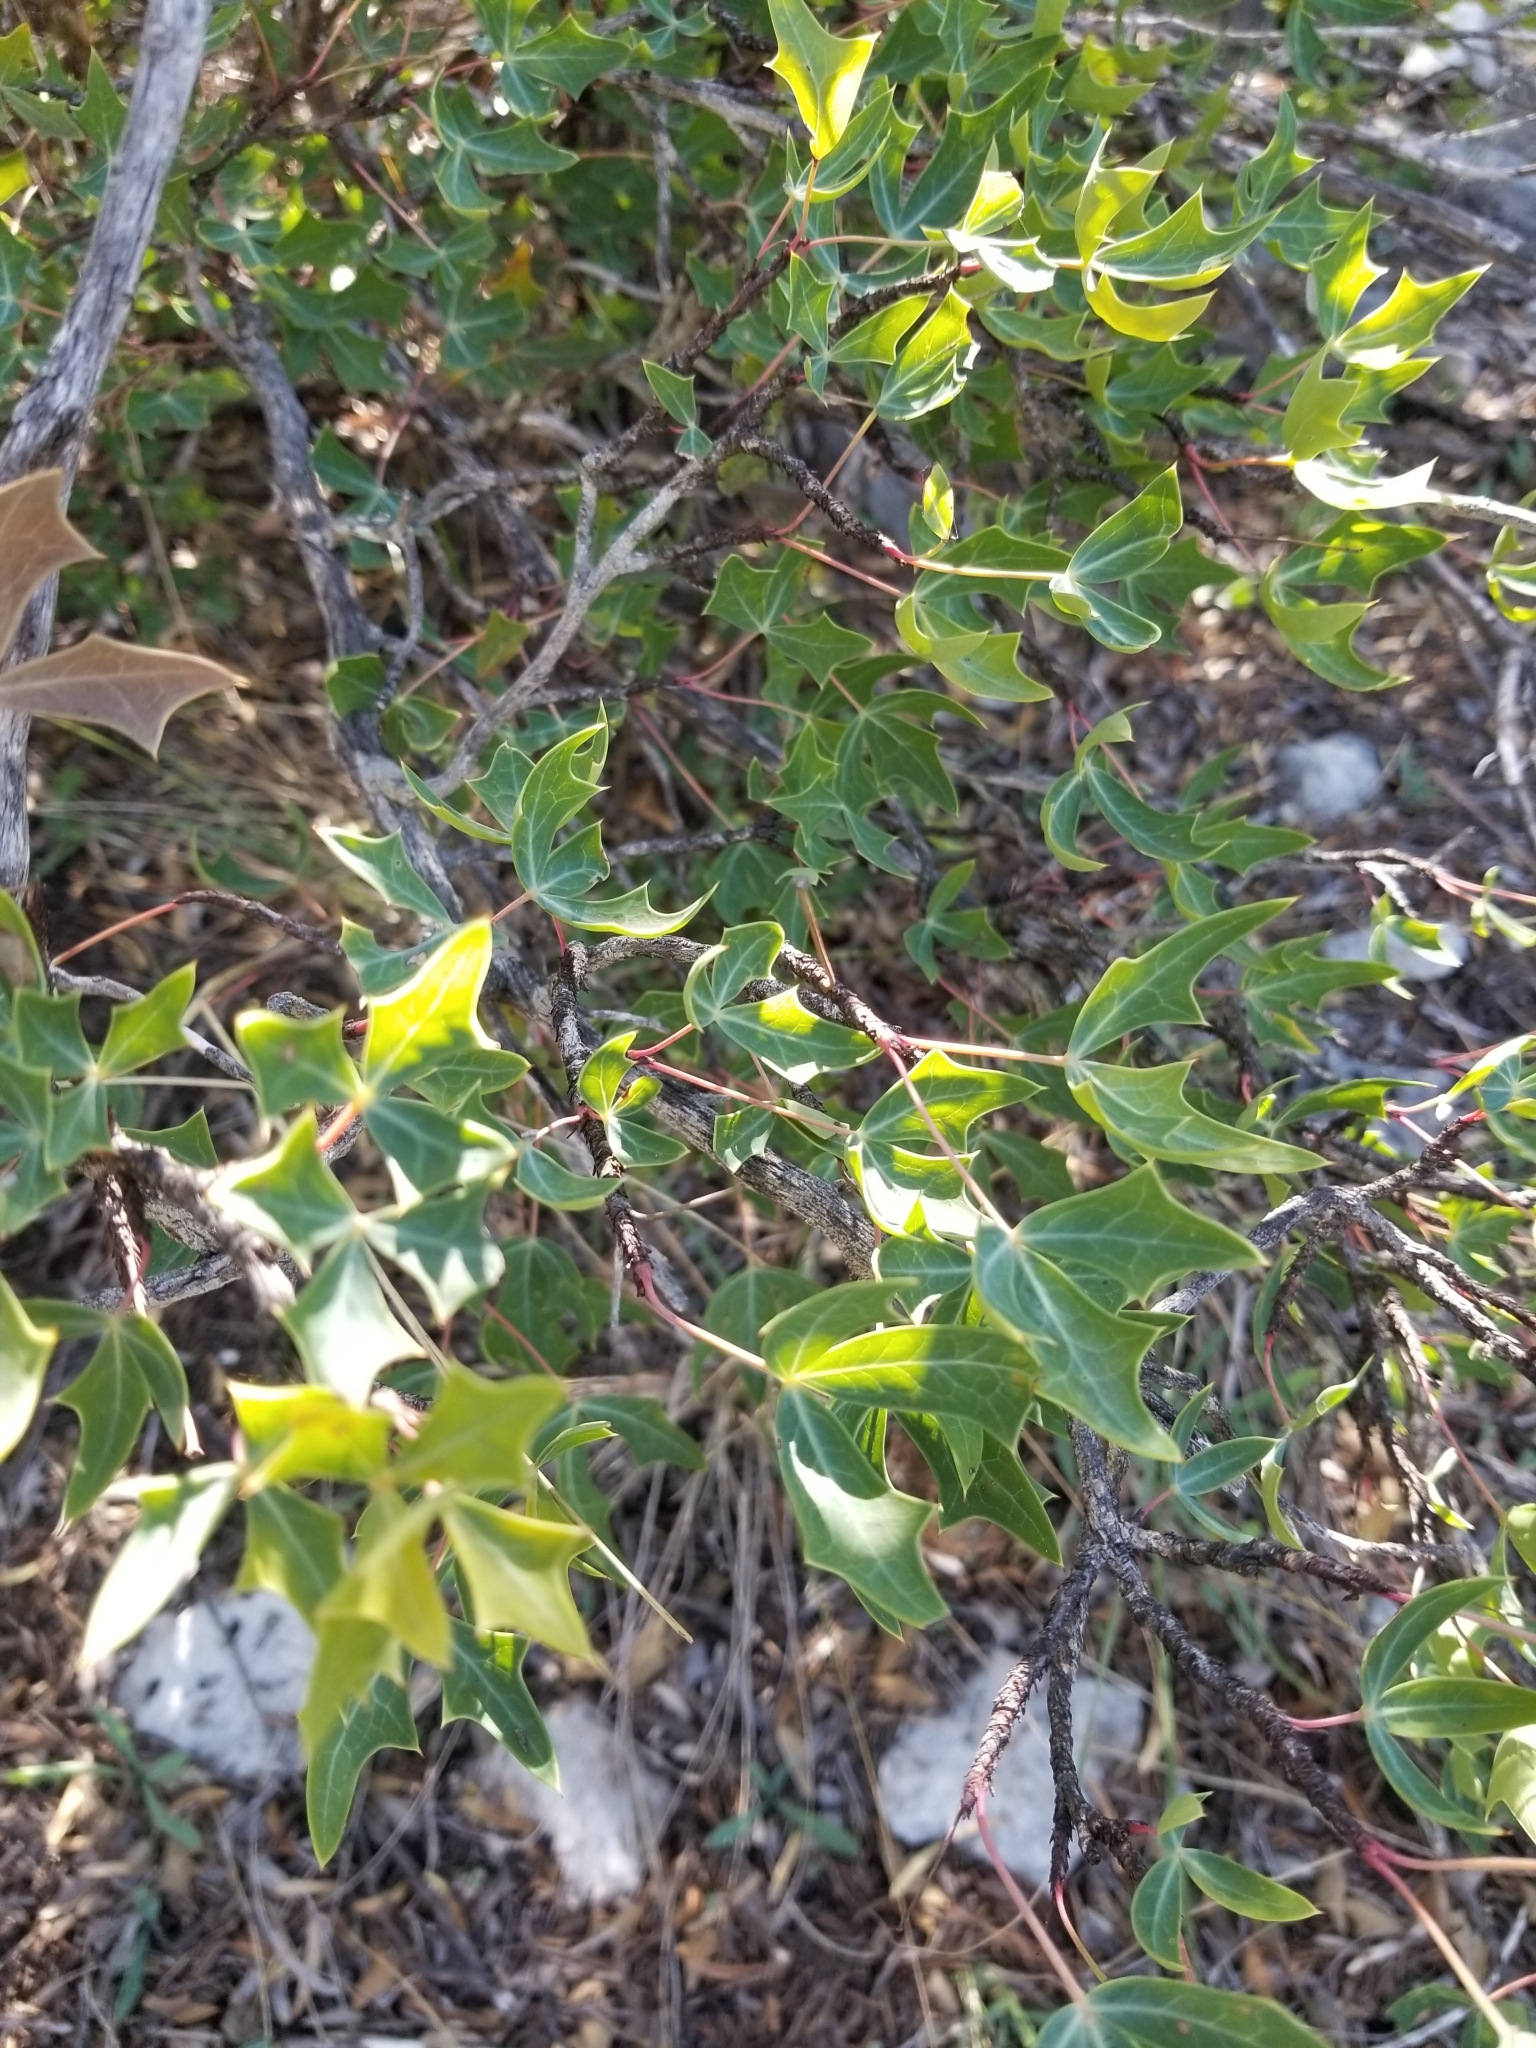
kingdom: Plantae
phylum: Tracheophyta
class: Magnoliopsida
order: Ranunculales
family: Berberidaceae
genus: Alloberberis
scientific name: Alloberberis trifoliolata
